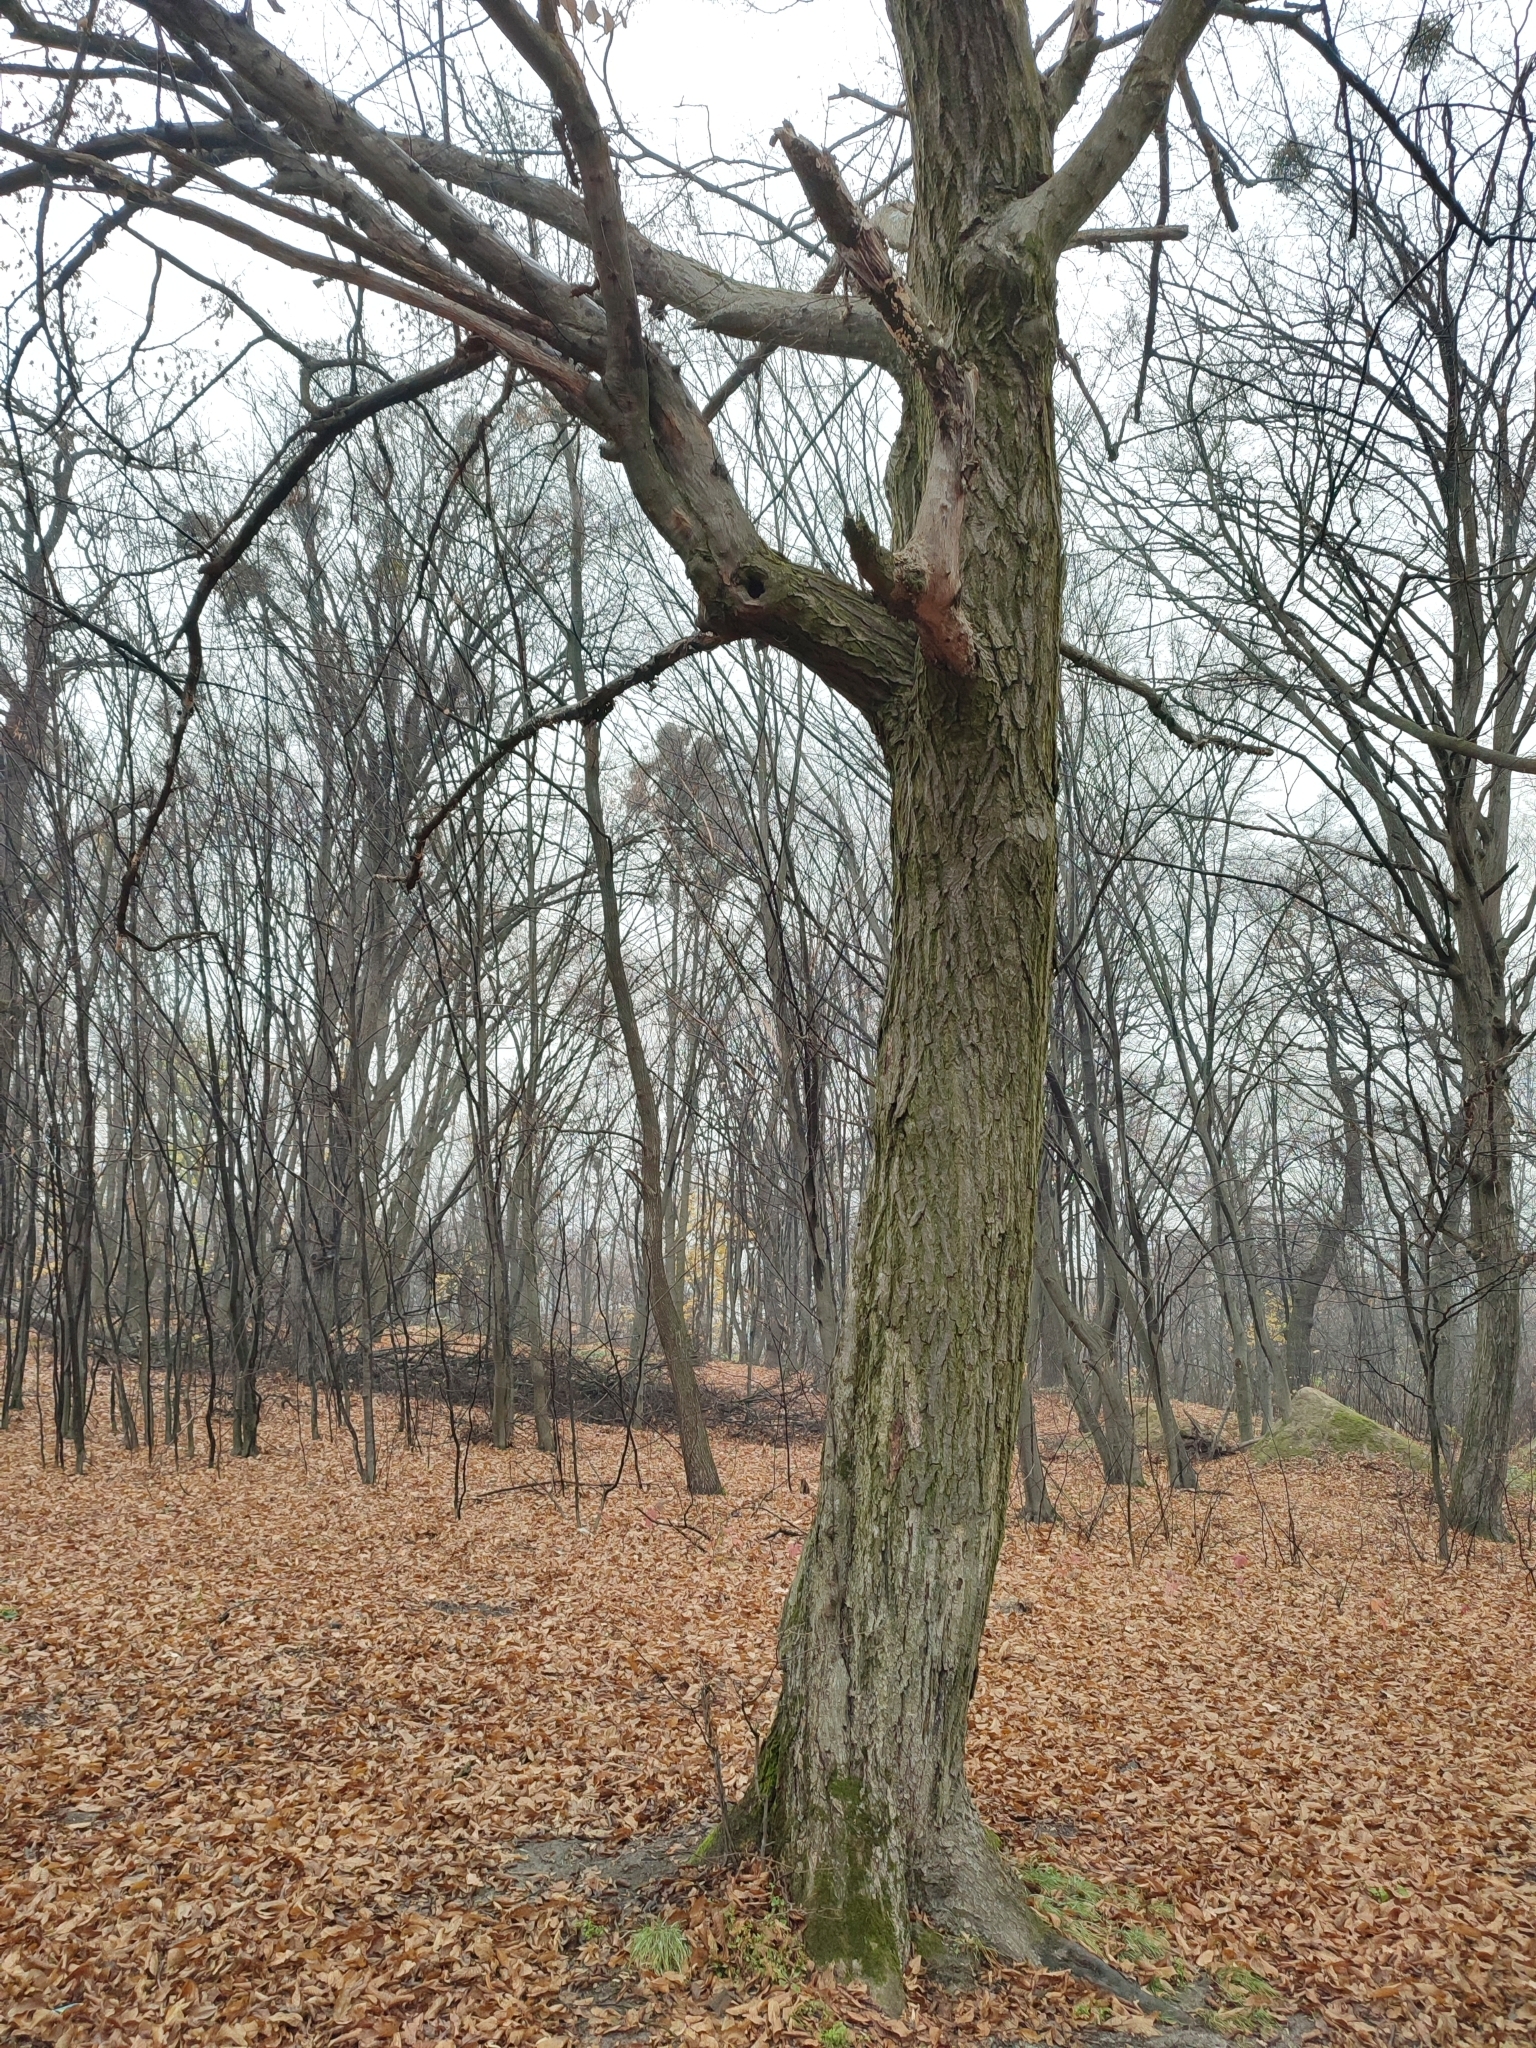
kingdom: Plantae
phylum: Tracheophyta
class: Magnoliopsida
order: Fagales
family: Betulaceae
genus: Carpinus
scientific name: Carpinus betulus
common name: Hornbeam
